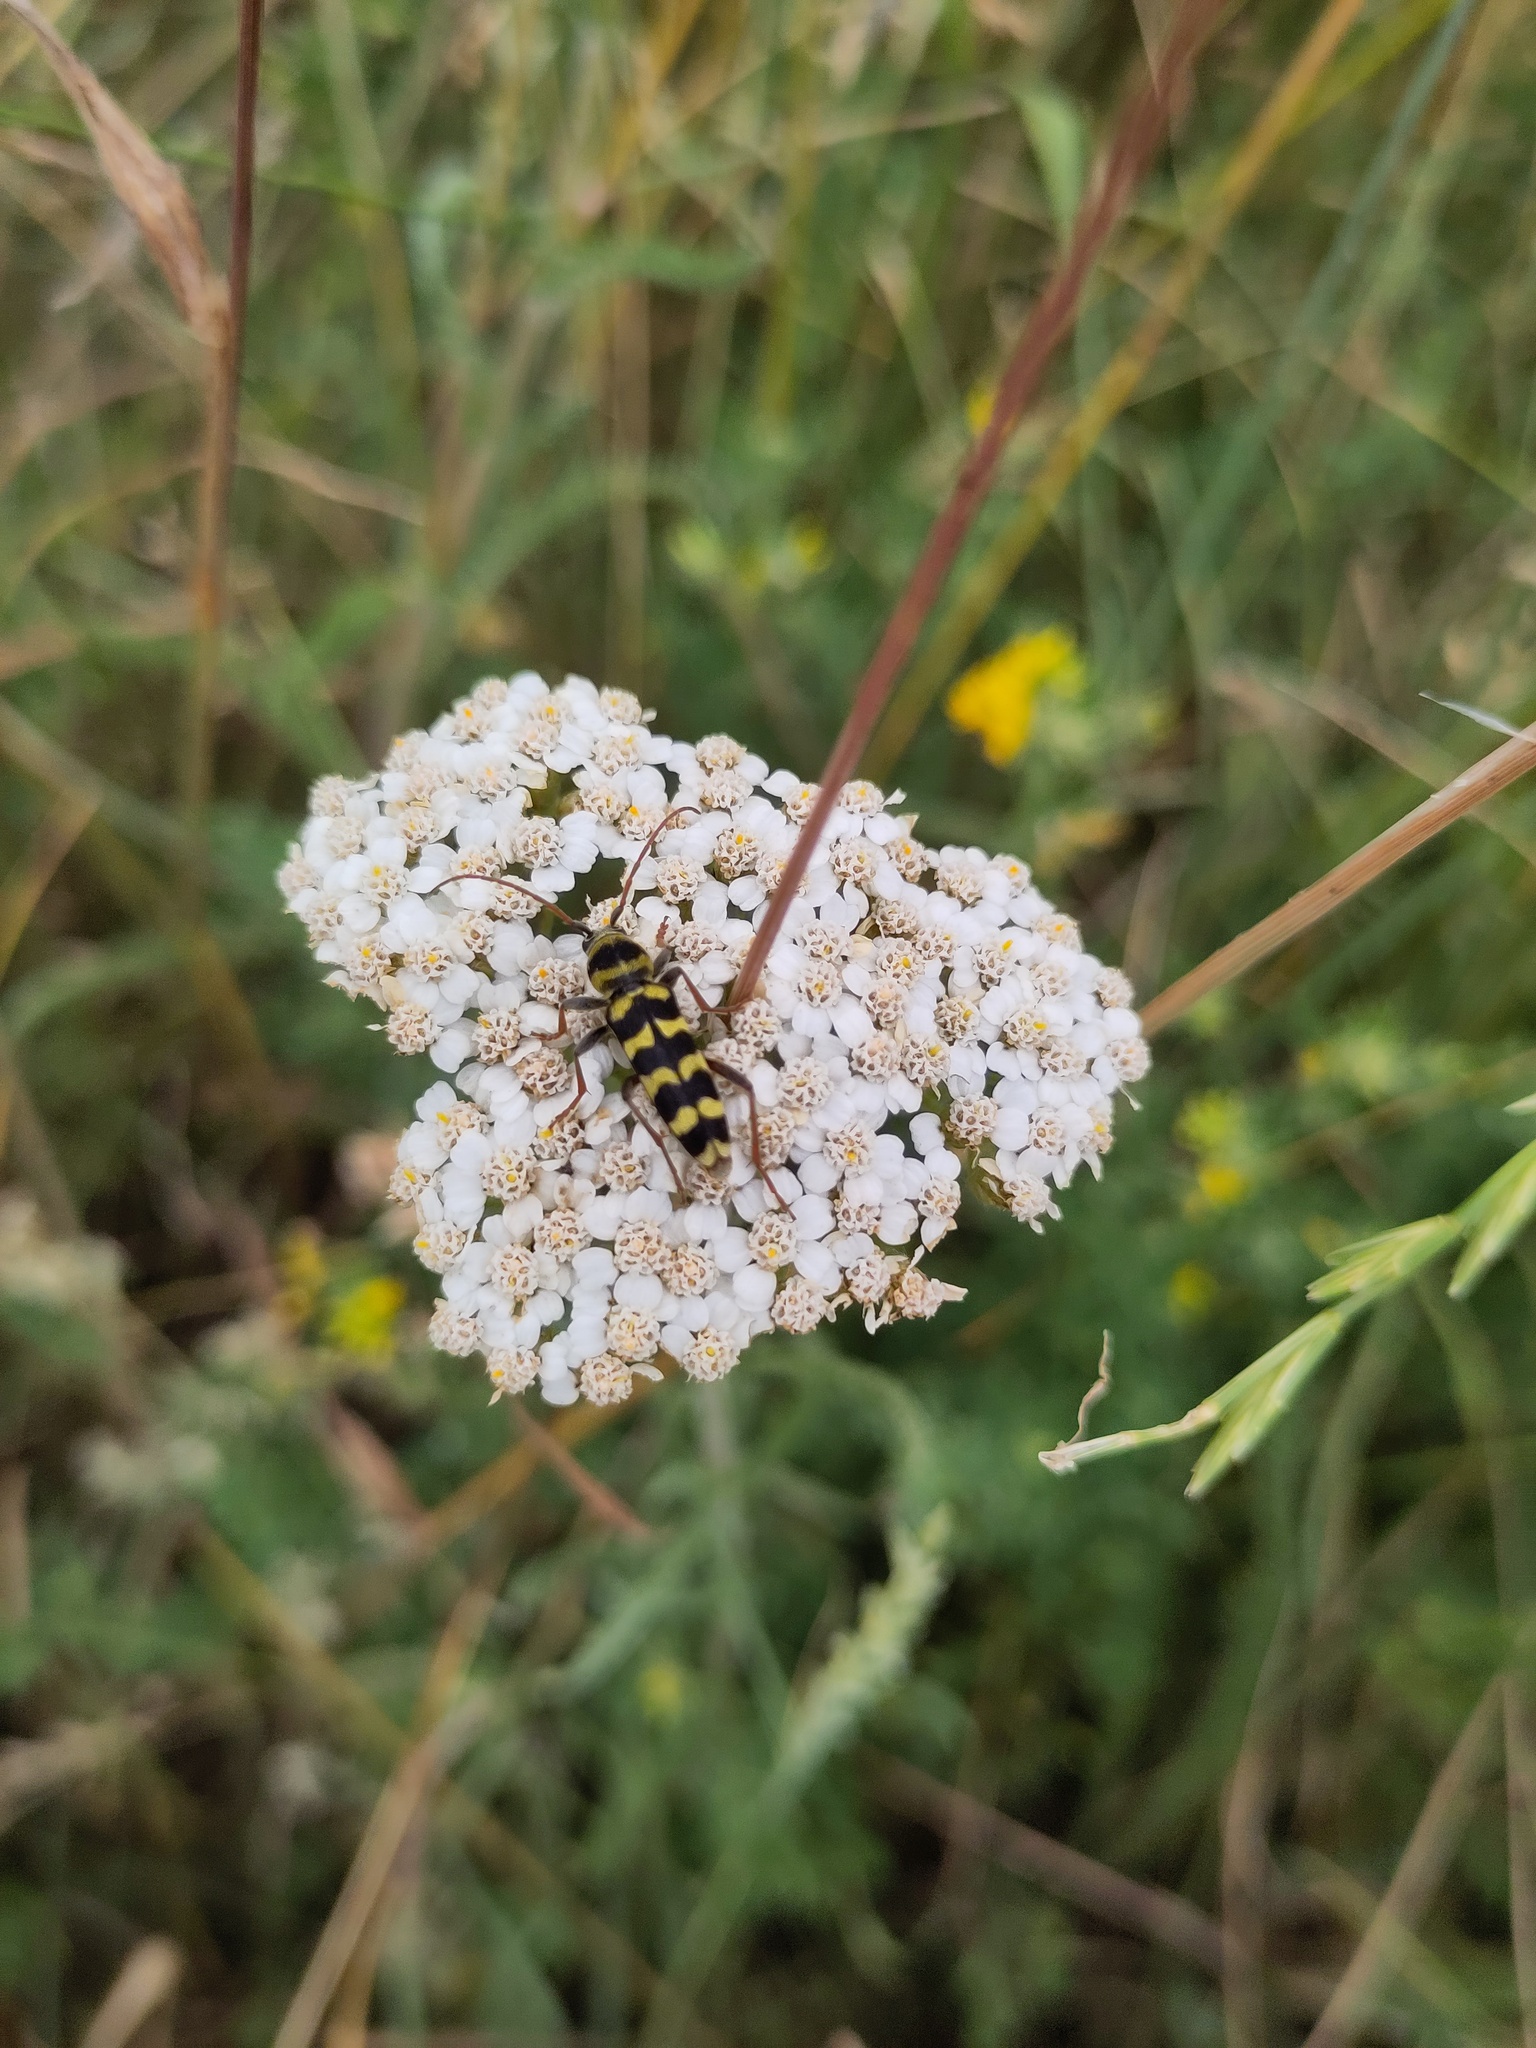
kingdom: Animalia
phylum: Arthropoda
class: Insecta
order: Coleoptera
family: Cerambycidae
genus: Plagionotus
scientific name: Plagionotus floralis
